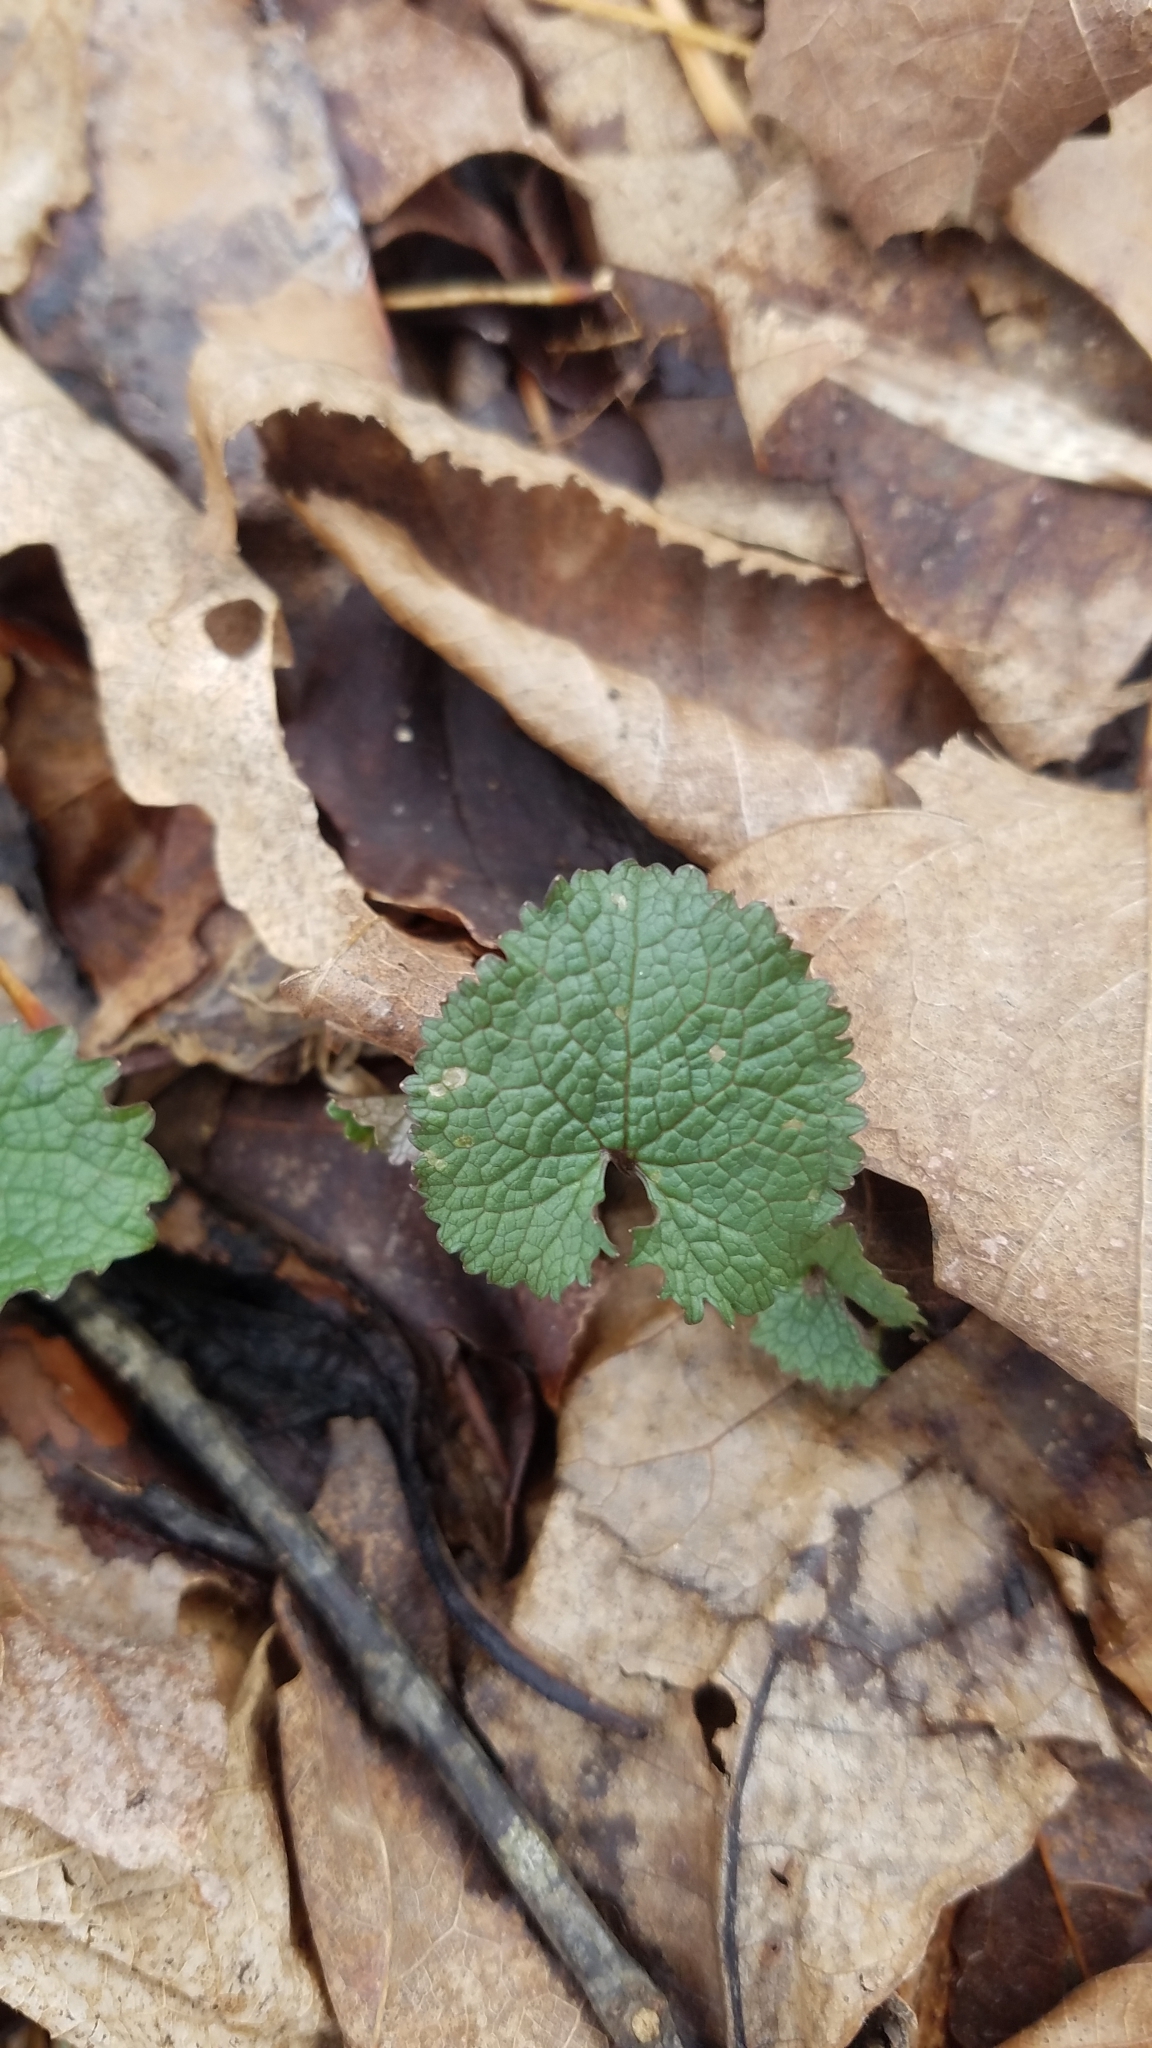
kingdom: Plantae
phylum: Tracheophyta
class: Magnoliopsida
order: Brassicales
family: Brassicaceae
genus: Alliaria
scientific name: Alliaria petiolata
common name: Garlic mustard
